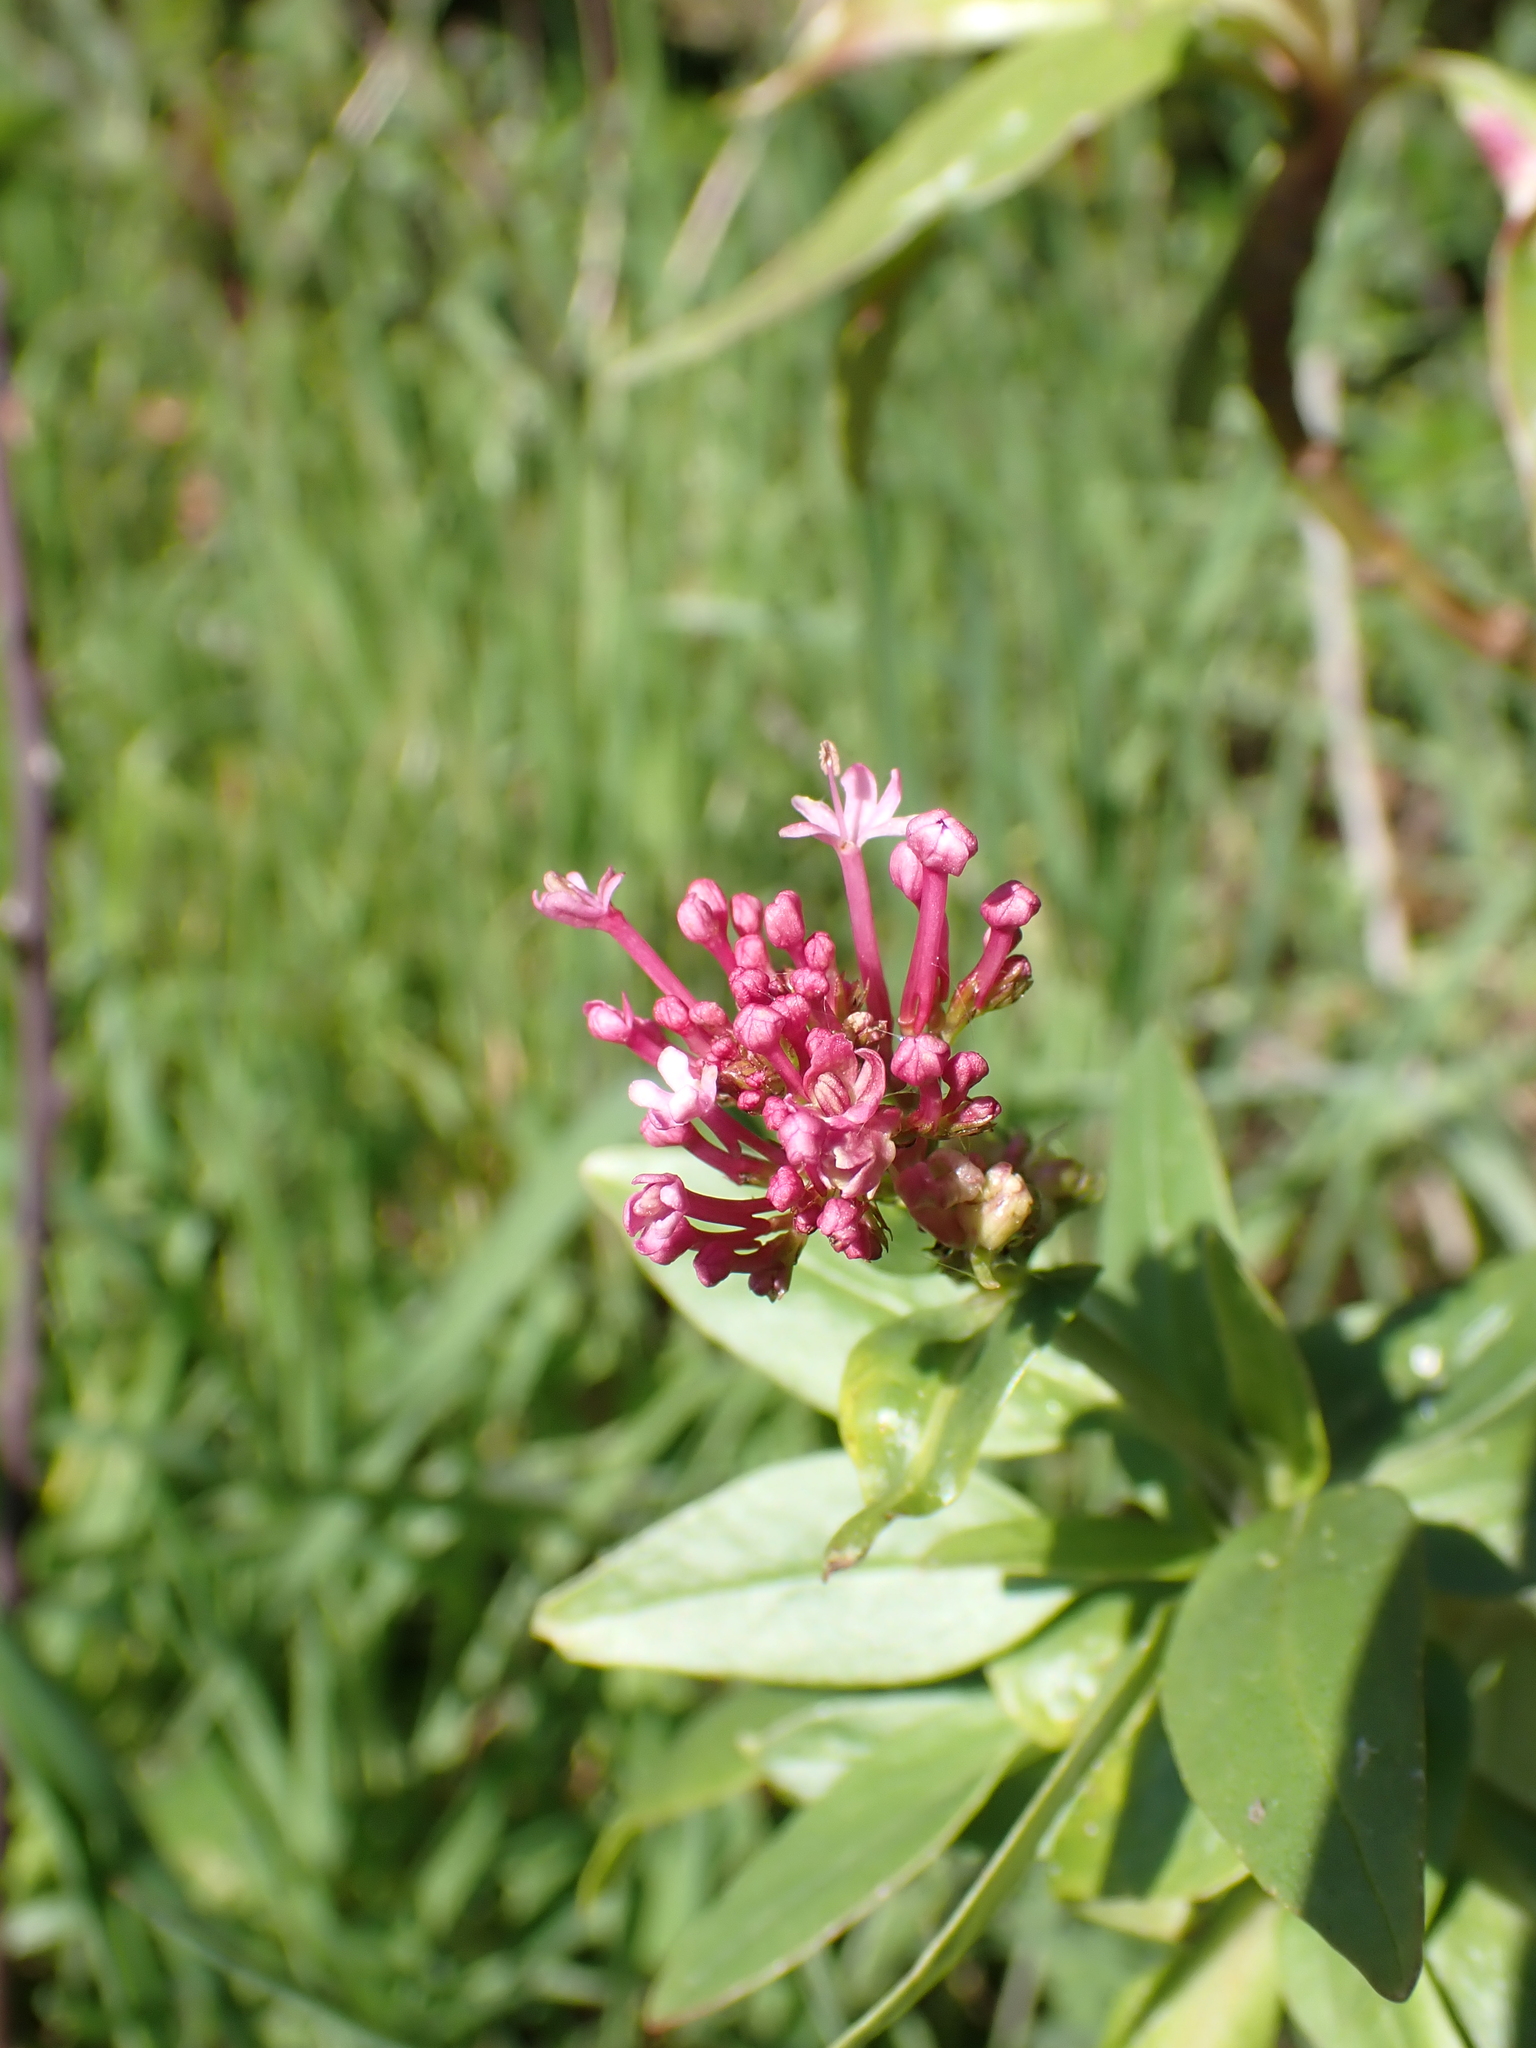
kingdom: Plantae
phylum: Tracheophyta
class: Magnoliopsida
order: Dipsacales
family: Caprifoliaceae
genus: Centranthus
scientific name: Centranthus ruber
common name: Red valerian
